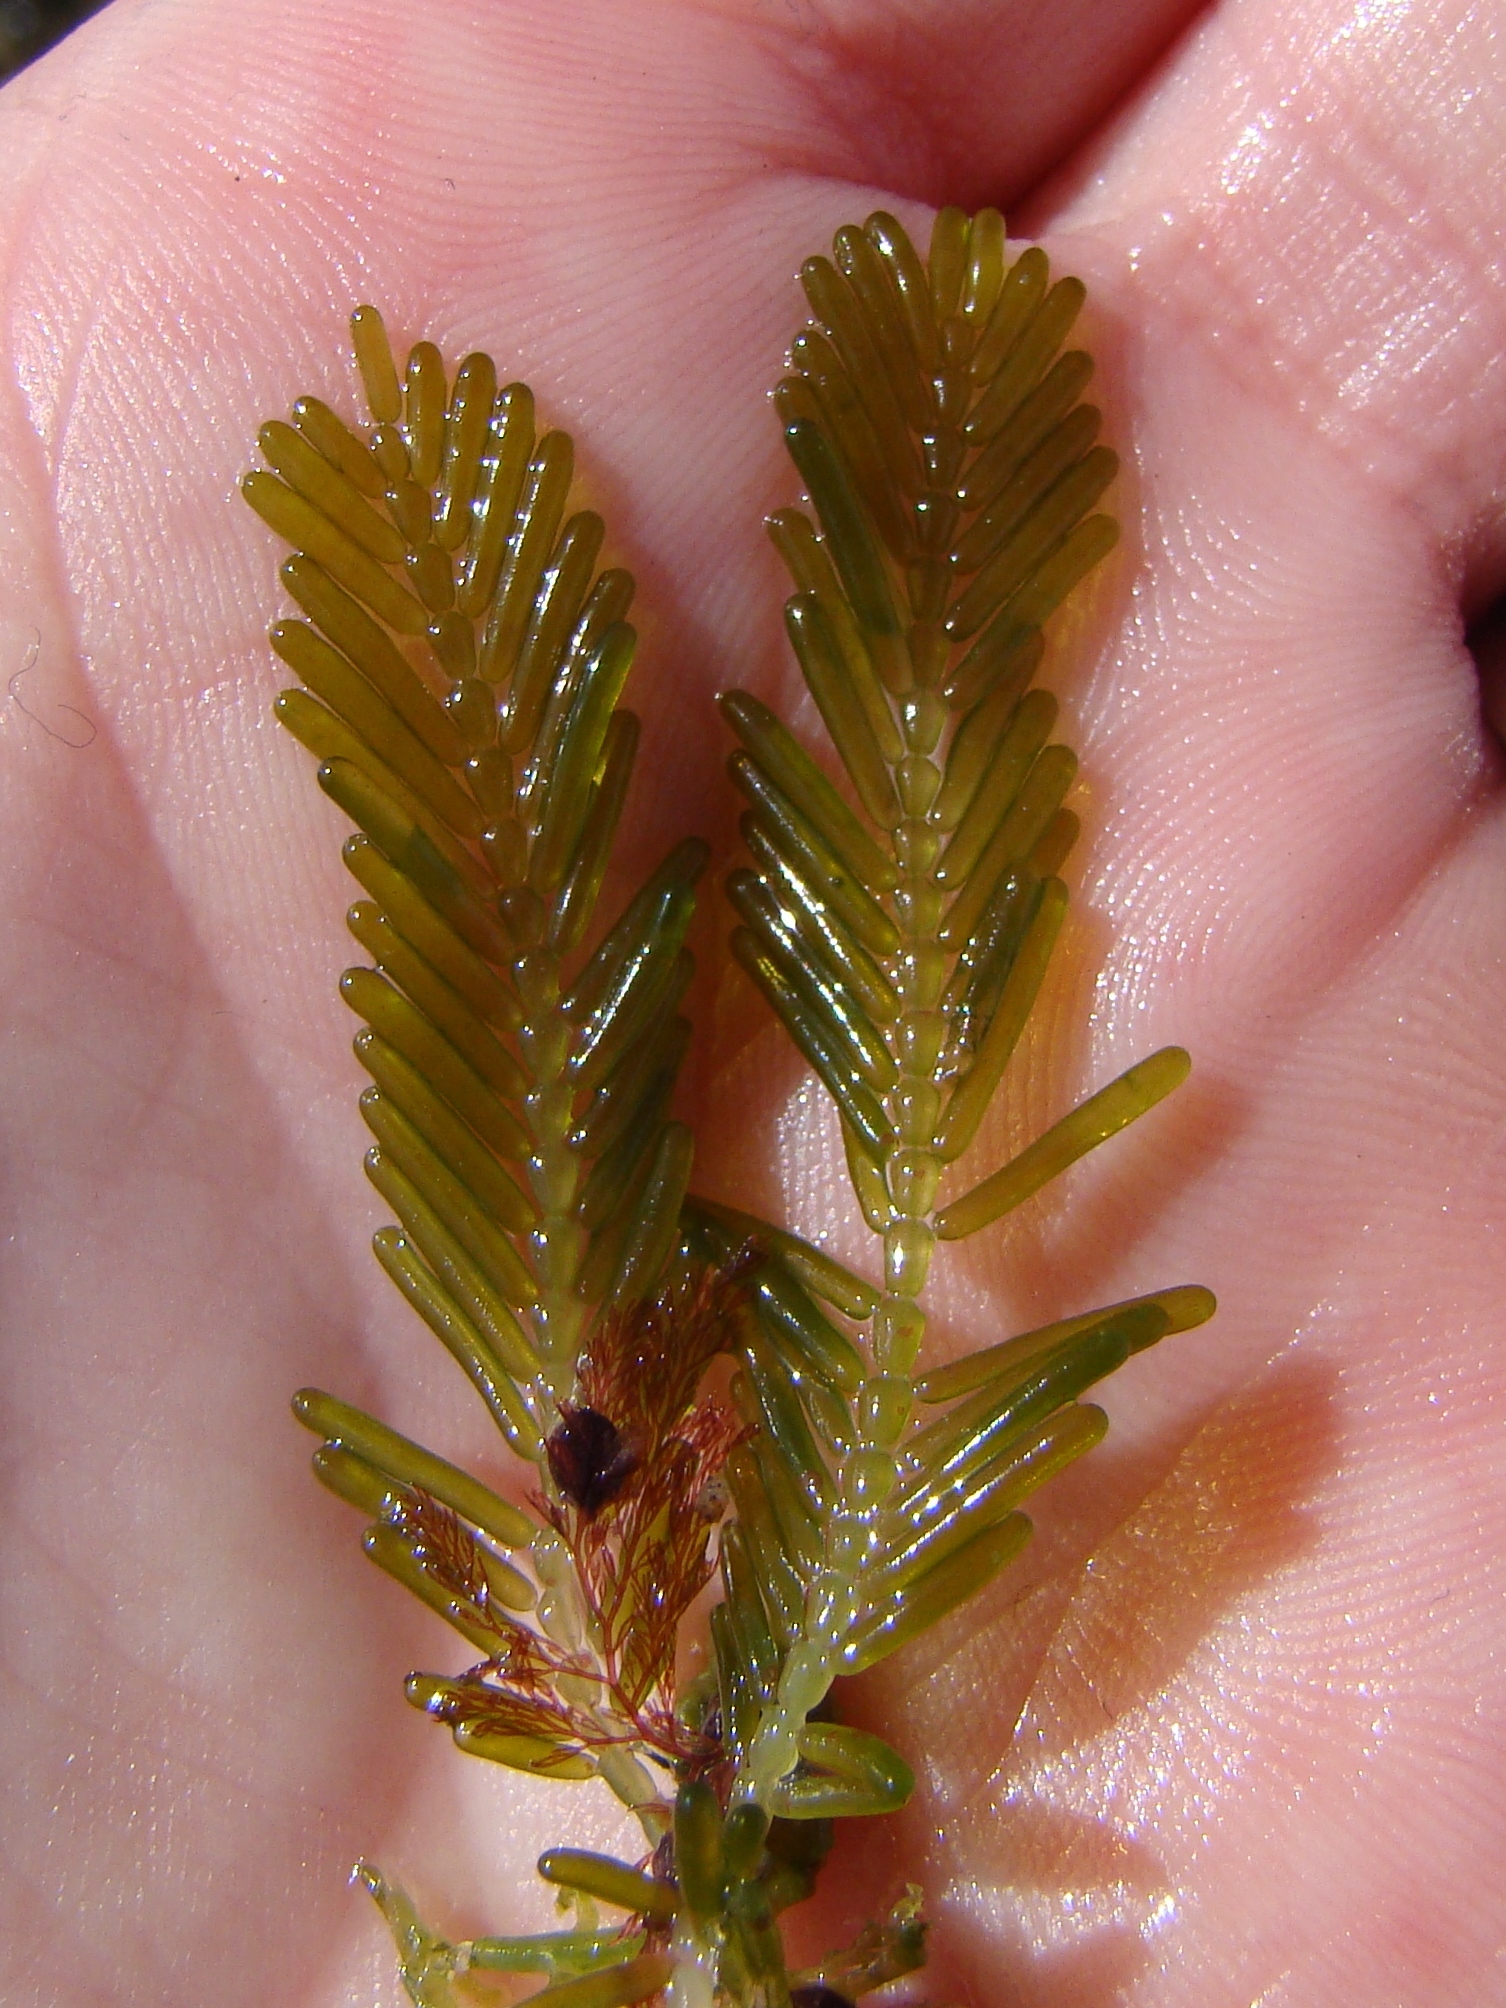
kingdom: Plantae
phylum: Chlorophyta
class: Ulvophyceae
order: Bryopsidales
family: Caulerpaceae
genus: Caulerpa
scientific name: Caulerpa sertularioides
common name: Green feather algae
